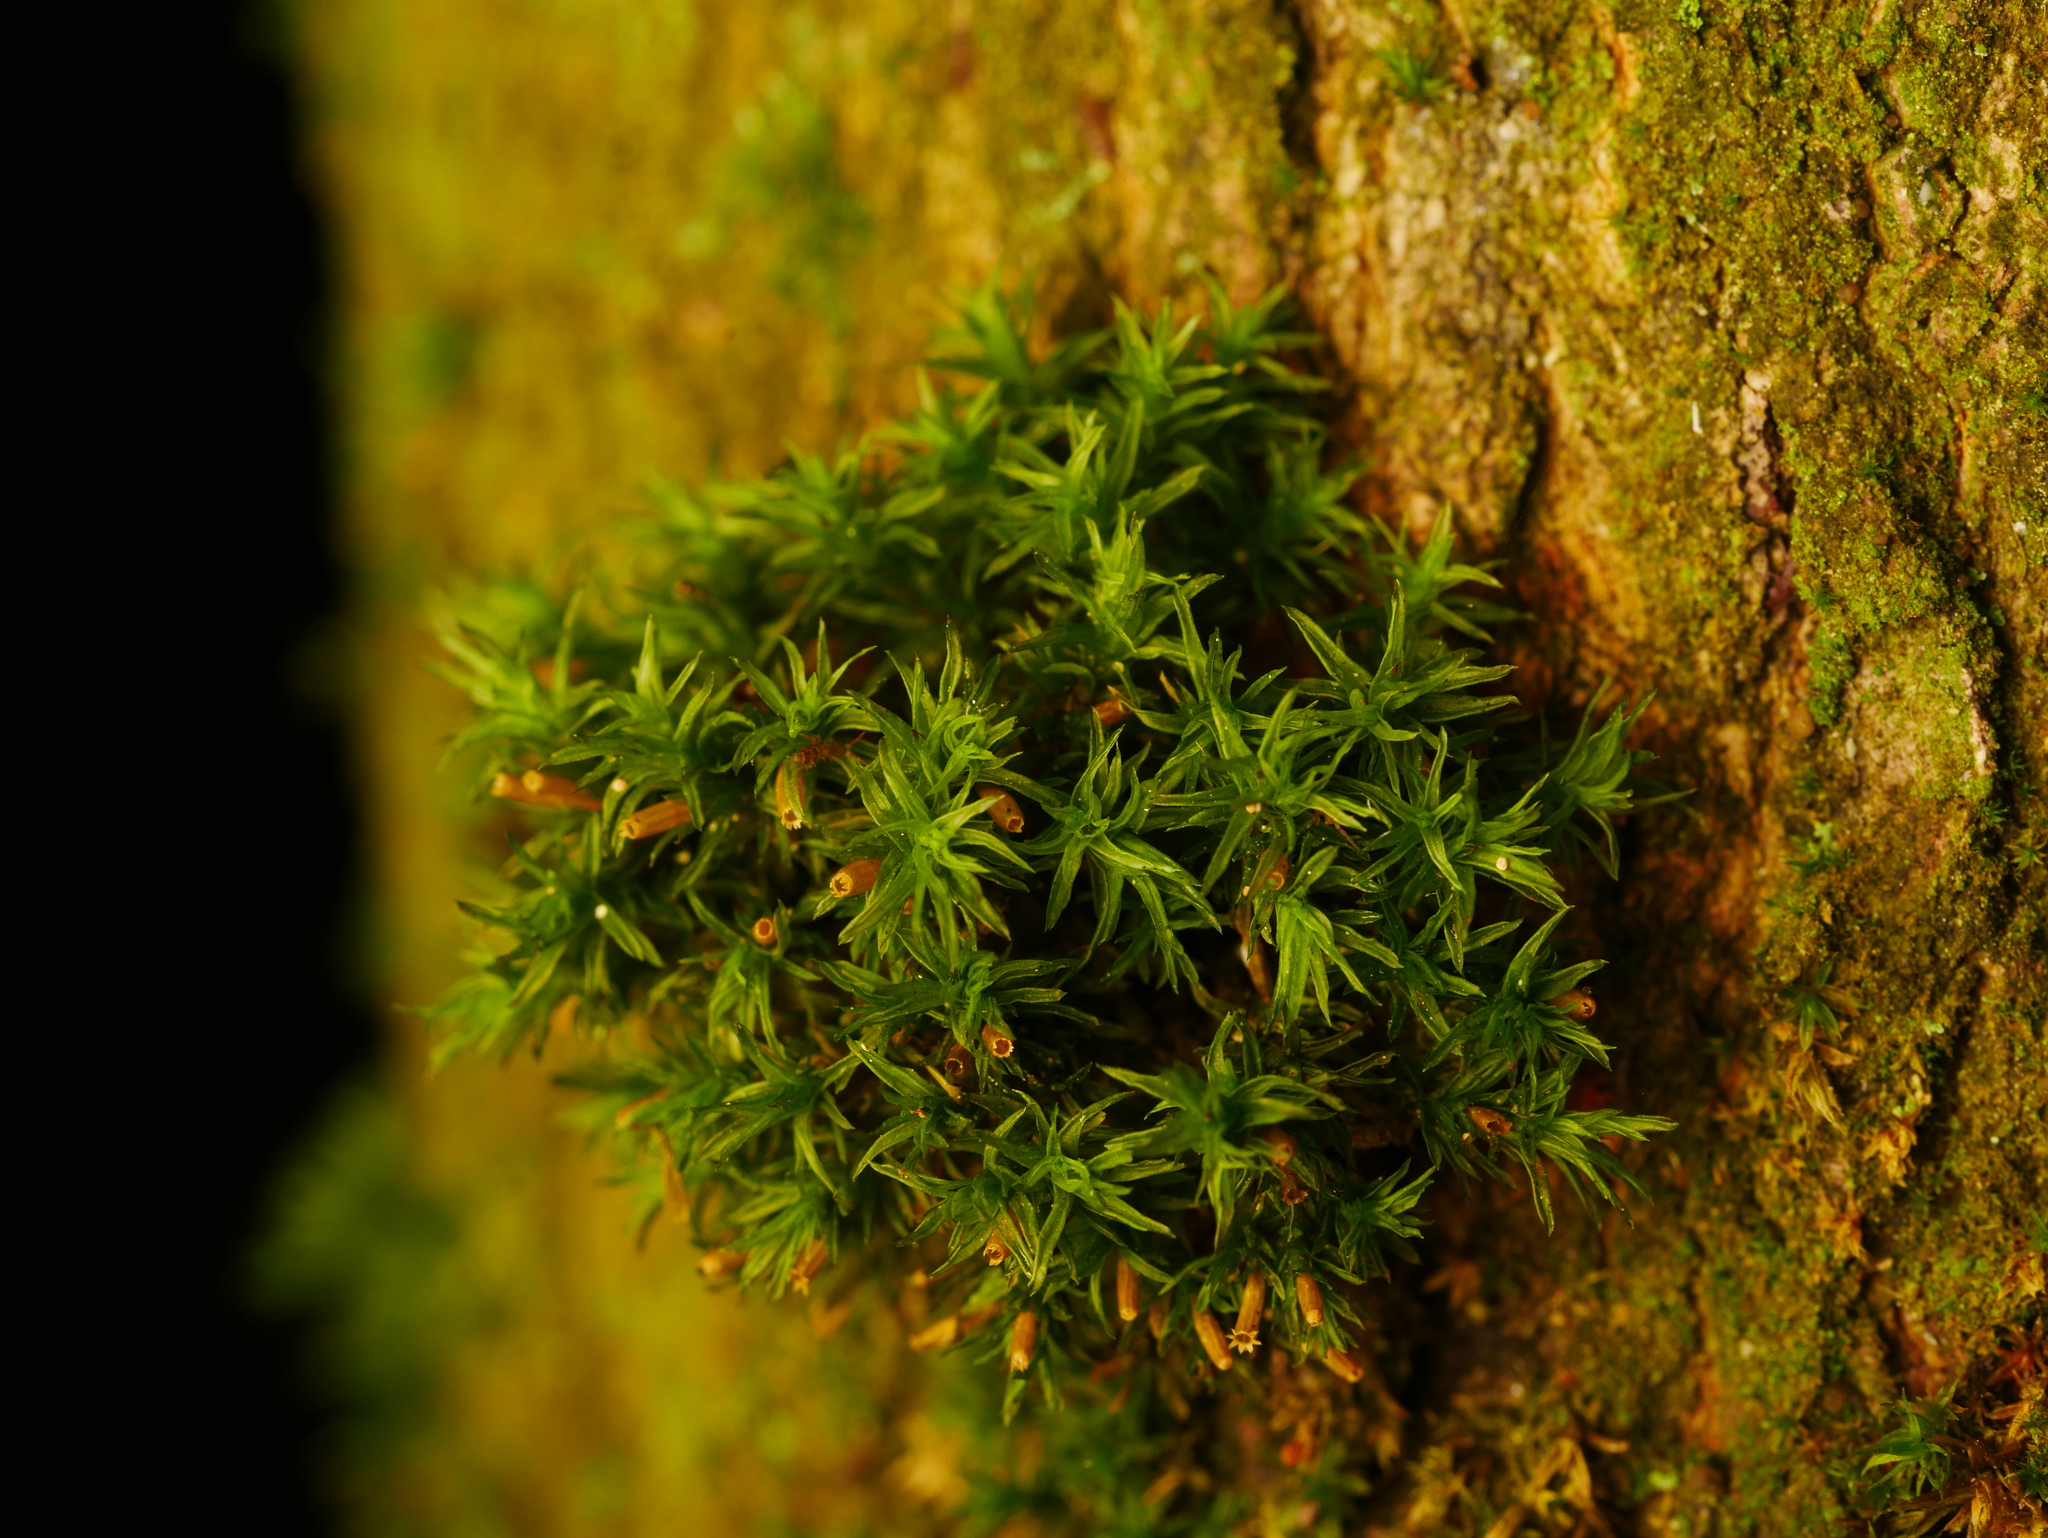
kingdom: Plantae
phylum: Bryophyta
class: Bryopsida
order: Orthotrichales
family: Orthotrichaceae
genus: Lewinskya
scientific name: Lewinskya affinis
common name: Wood bristle-moss
